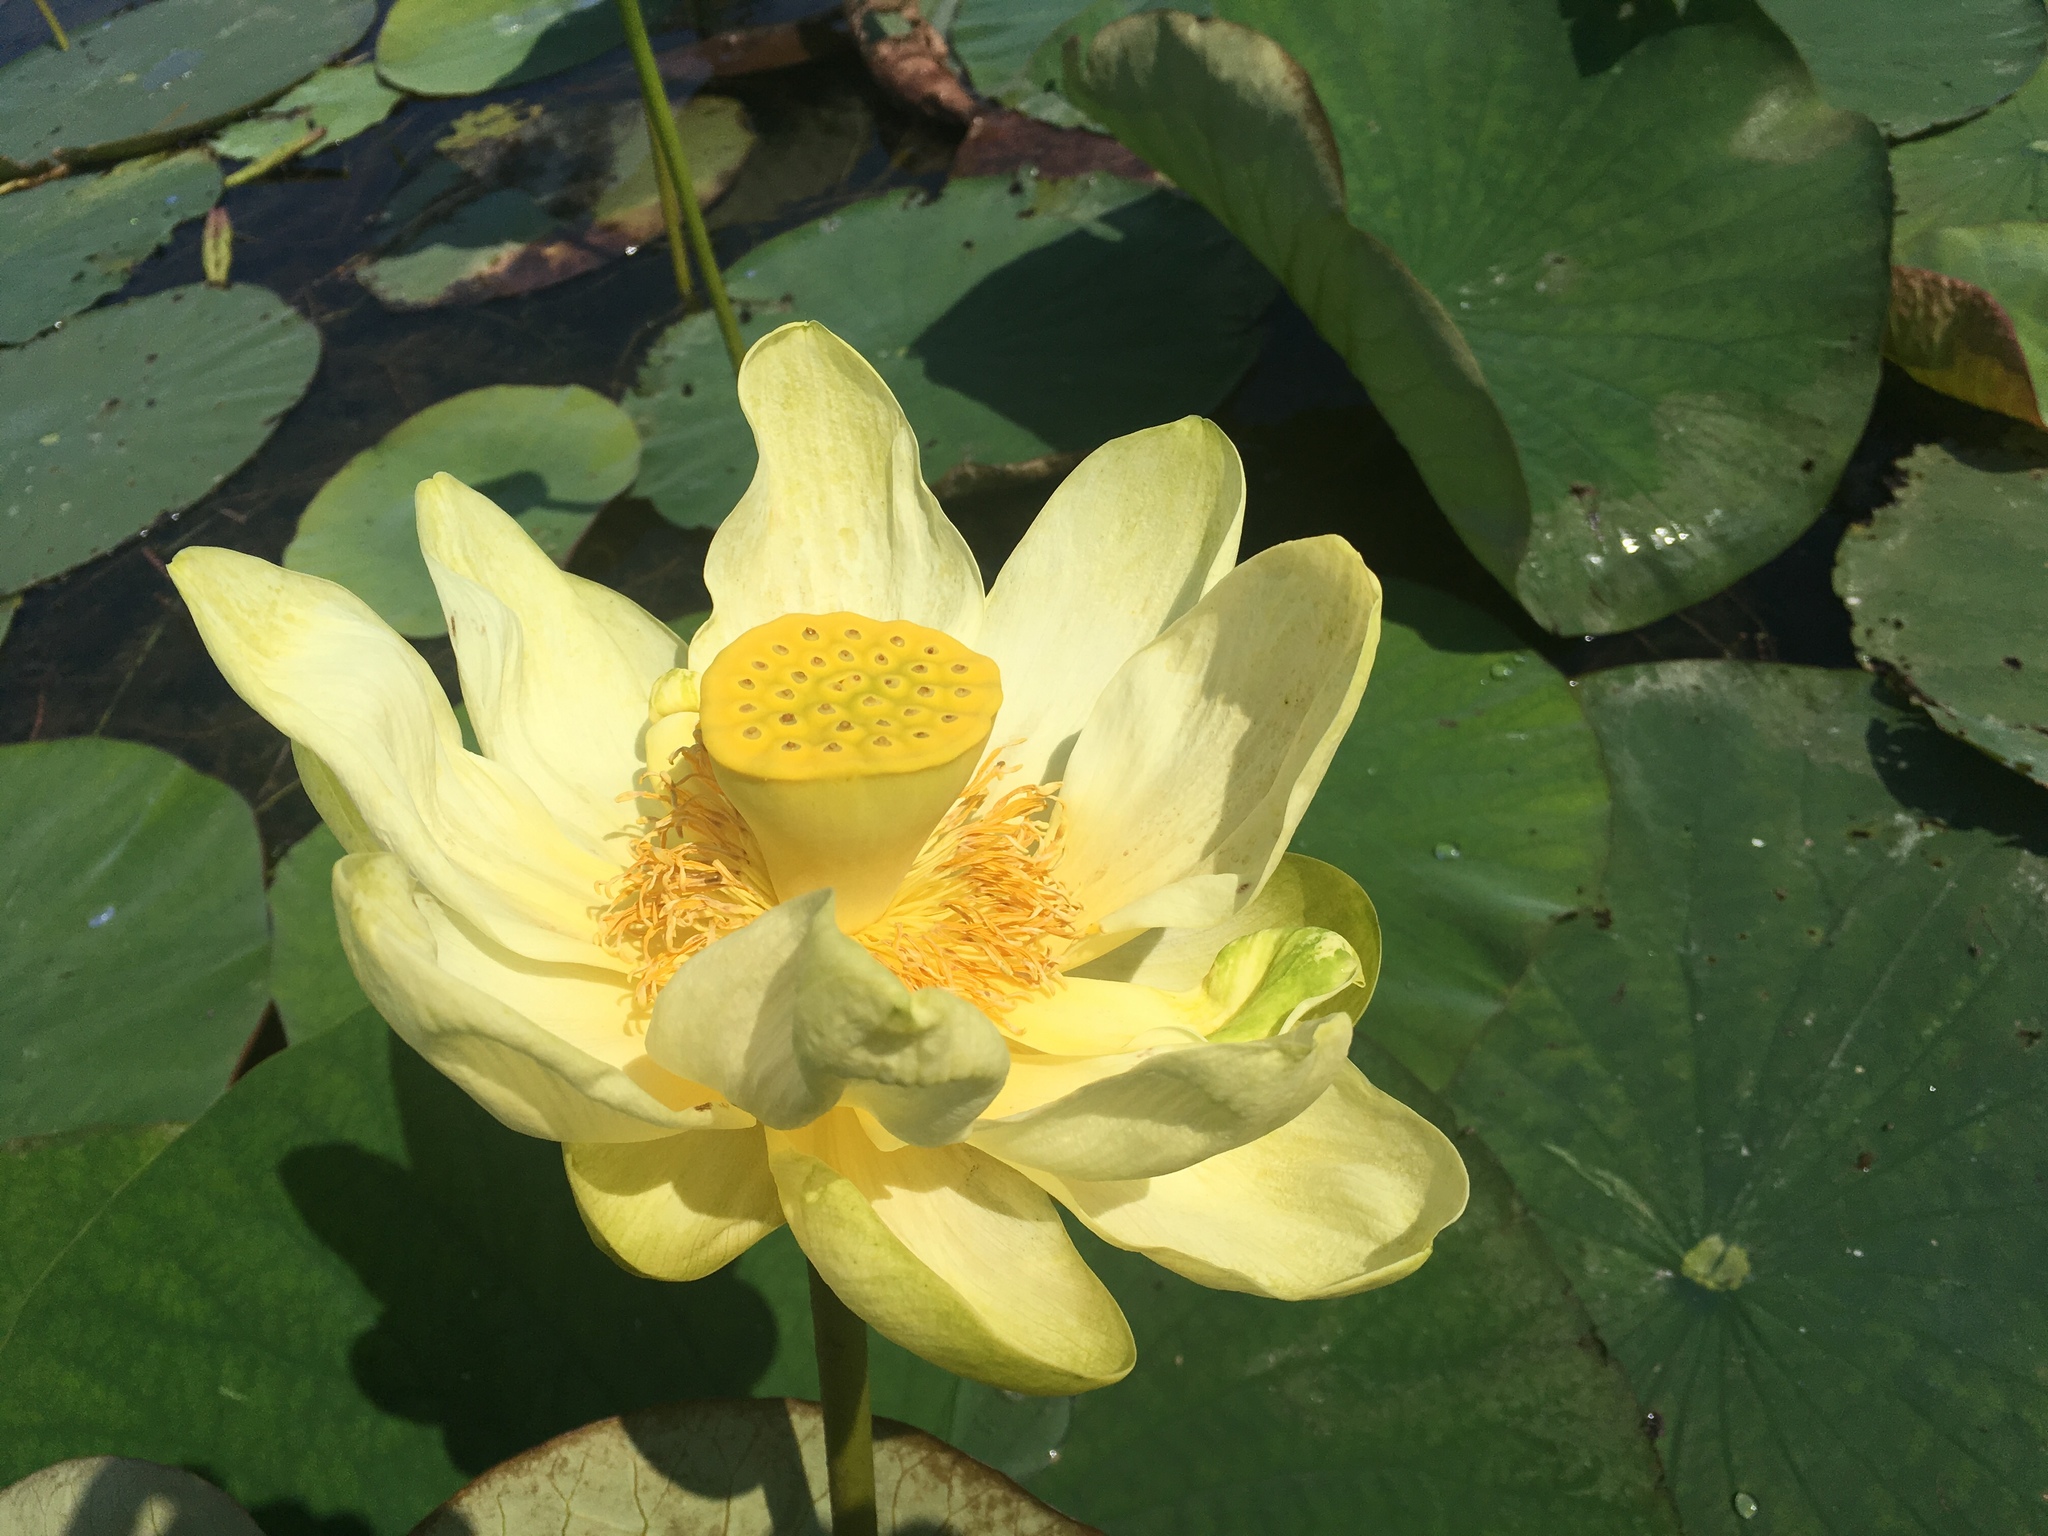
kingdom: Plantae
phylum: Tracheophyta
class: Magnoliopsida
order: Proteales
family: Nelumbonaceae
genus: Nelumbo
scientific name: Nelumbo lutea
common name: American lotus
